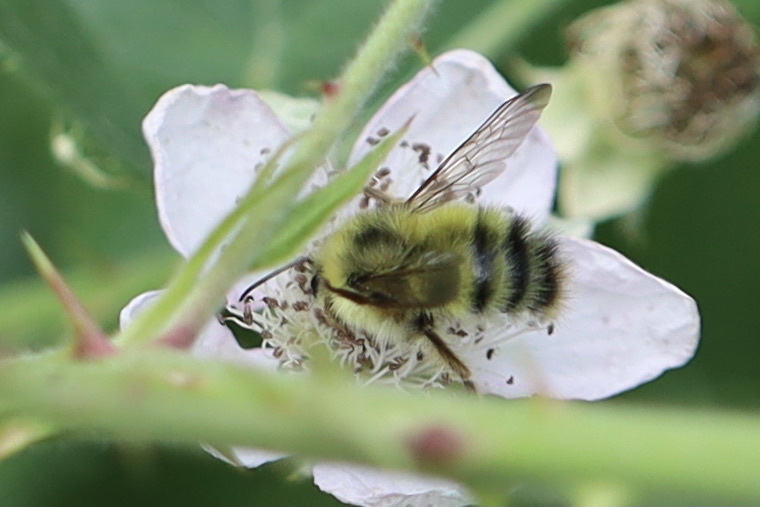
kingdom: Animalia
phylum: Arthropoda
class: Insecta
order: Hymenoptera
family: Apidae
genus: Bombus
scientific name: Bombus sitkensis
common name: Sitka bumble bee
